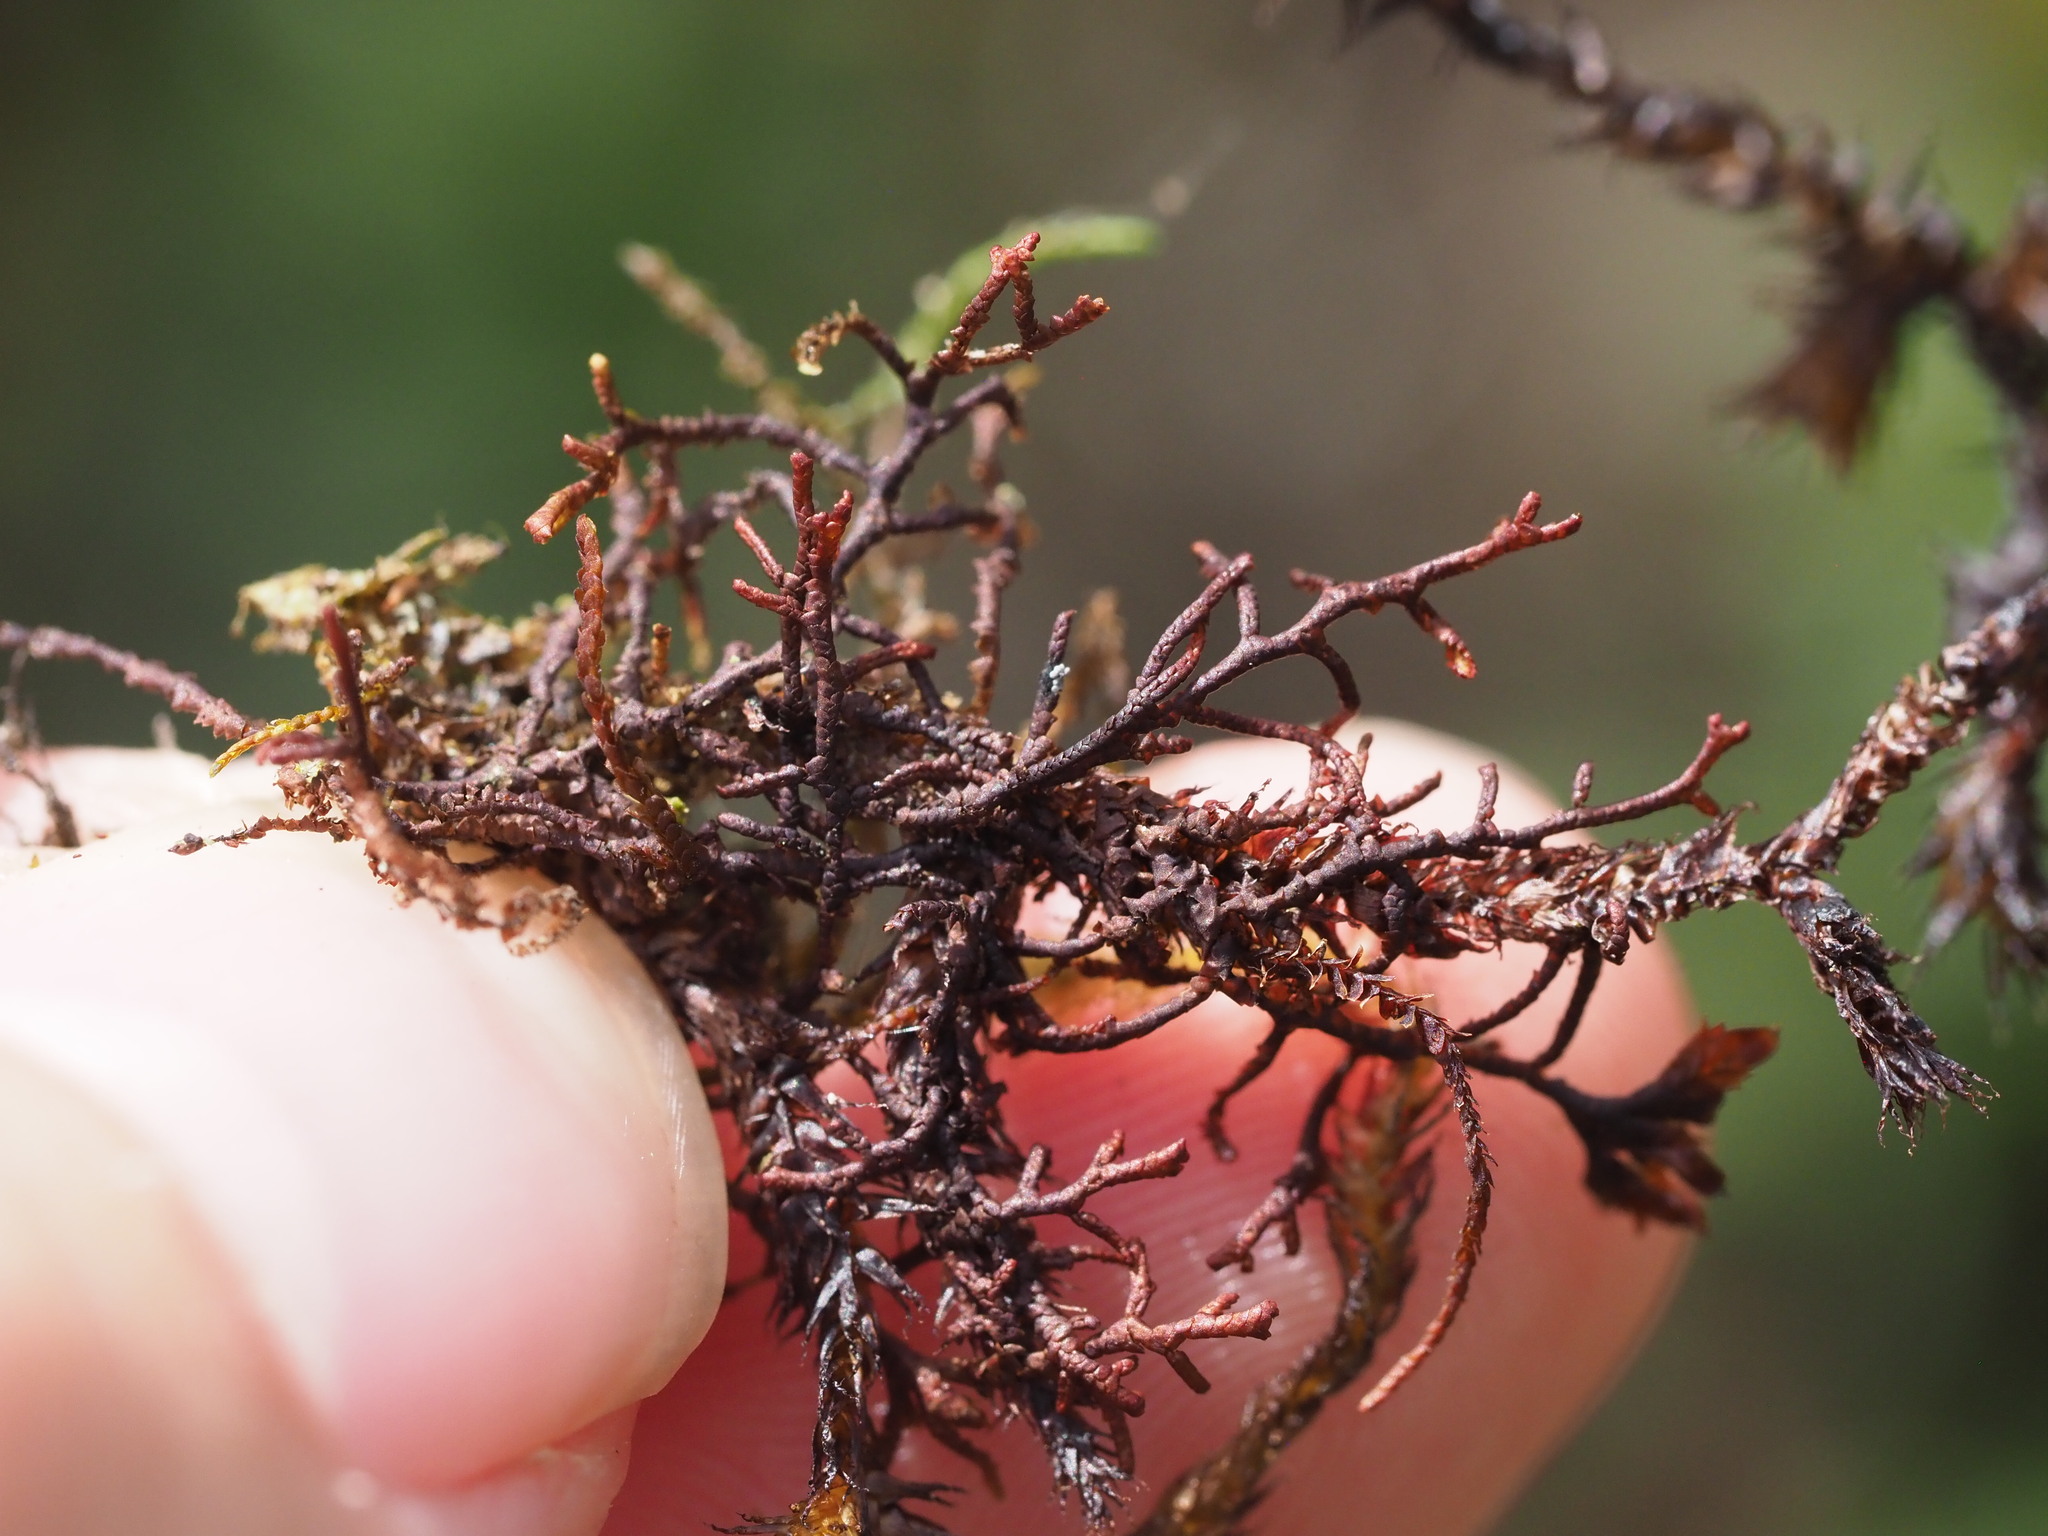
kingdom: Plantae
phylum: Marchantiophyta
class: Jungermanniopsida
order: Porellales
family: Frullaniaceae
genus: Frullania
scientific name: Frullania apiculata
